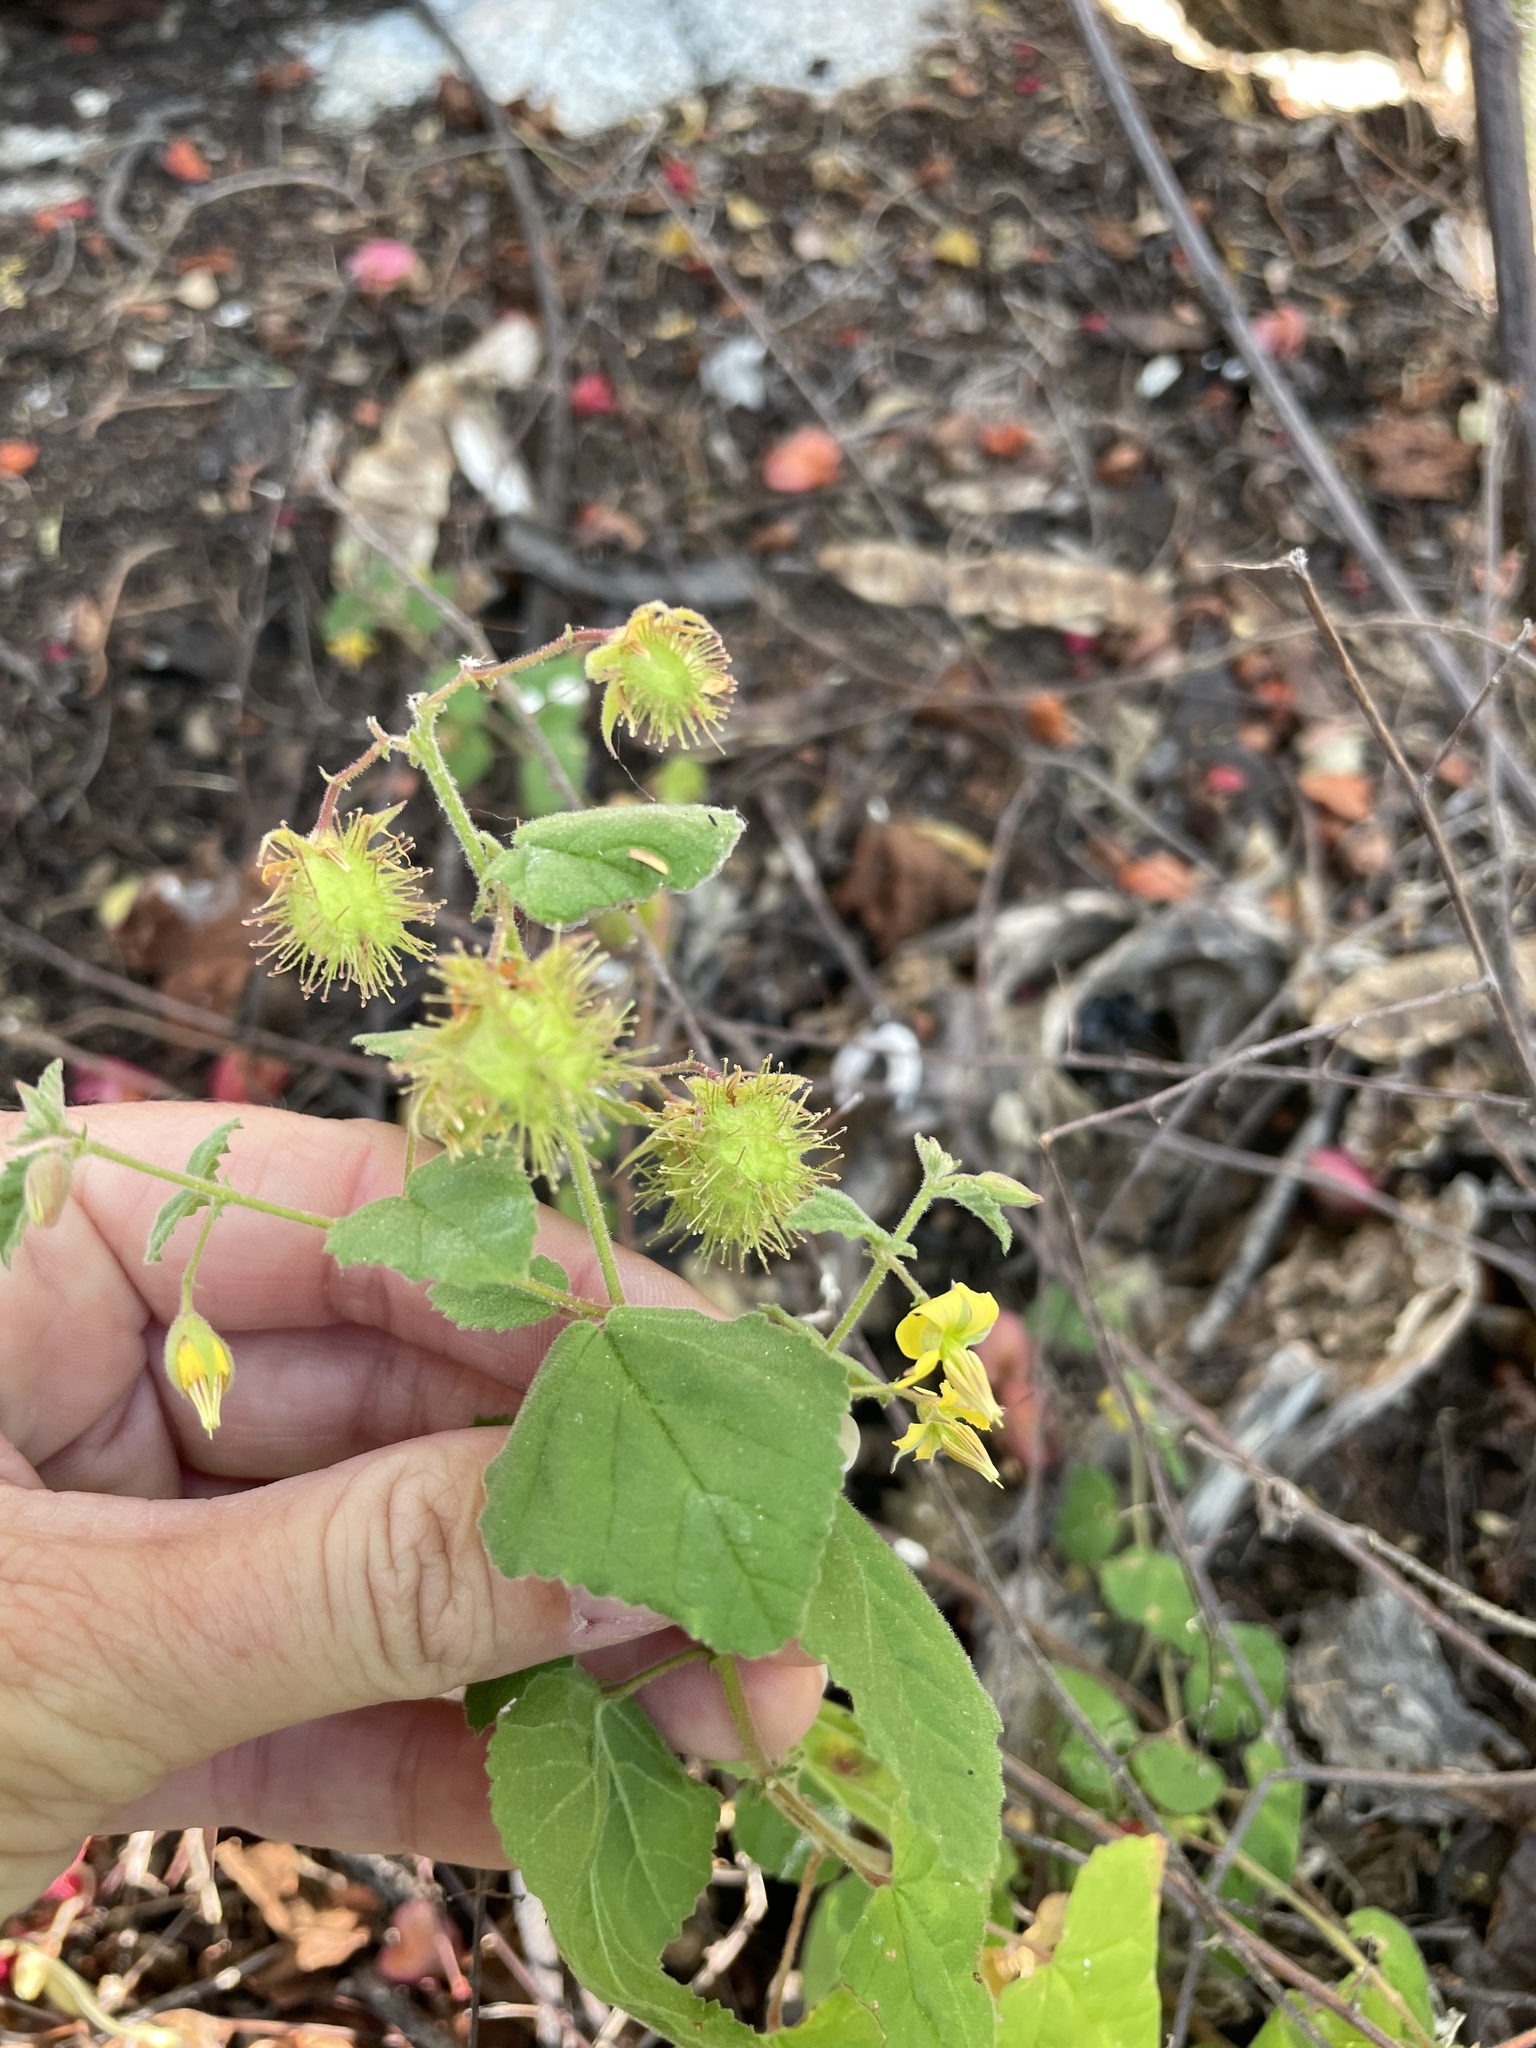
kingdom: Plantae
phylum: Tracheophyta
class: Magnoliopsida
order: Malvales
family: Malvaceae
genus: Hermannia
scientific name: Hermannia palmeri
